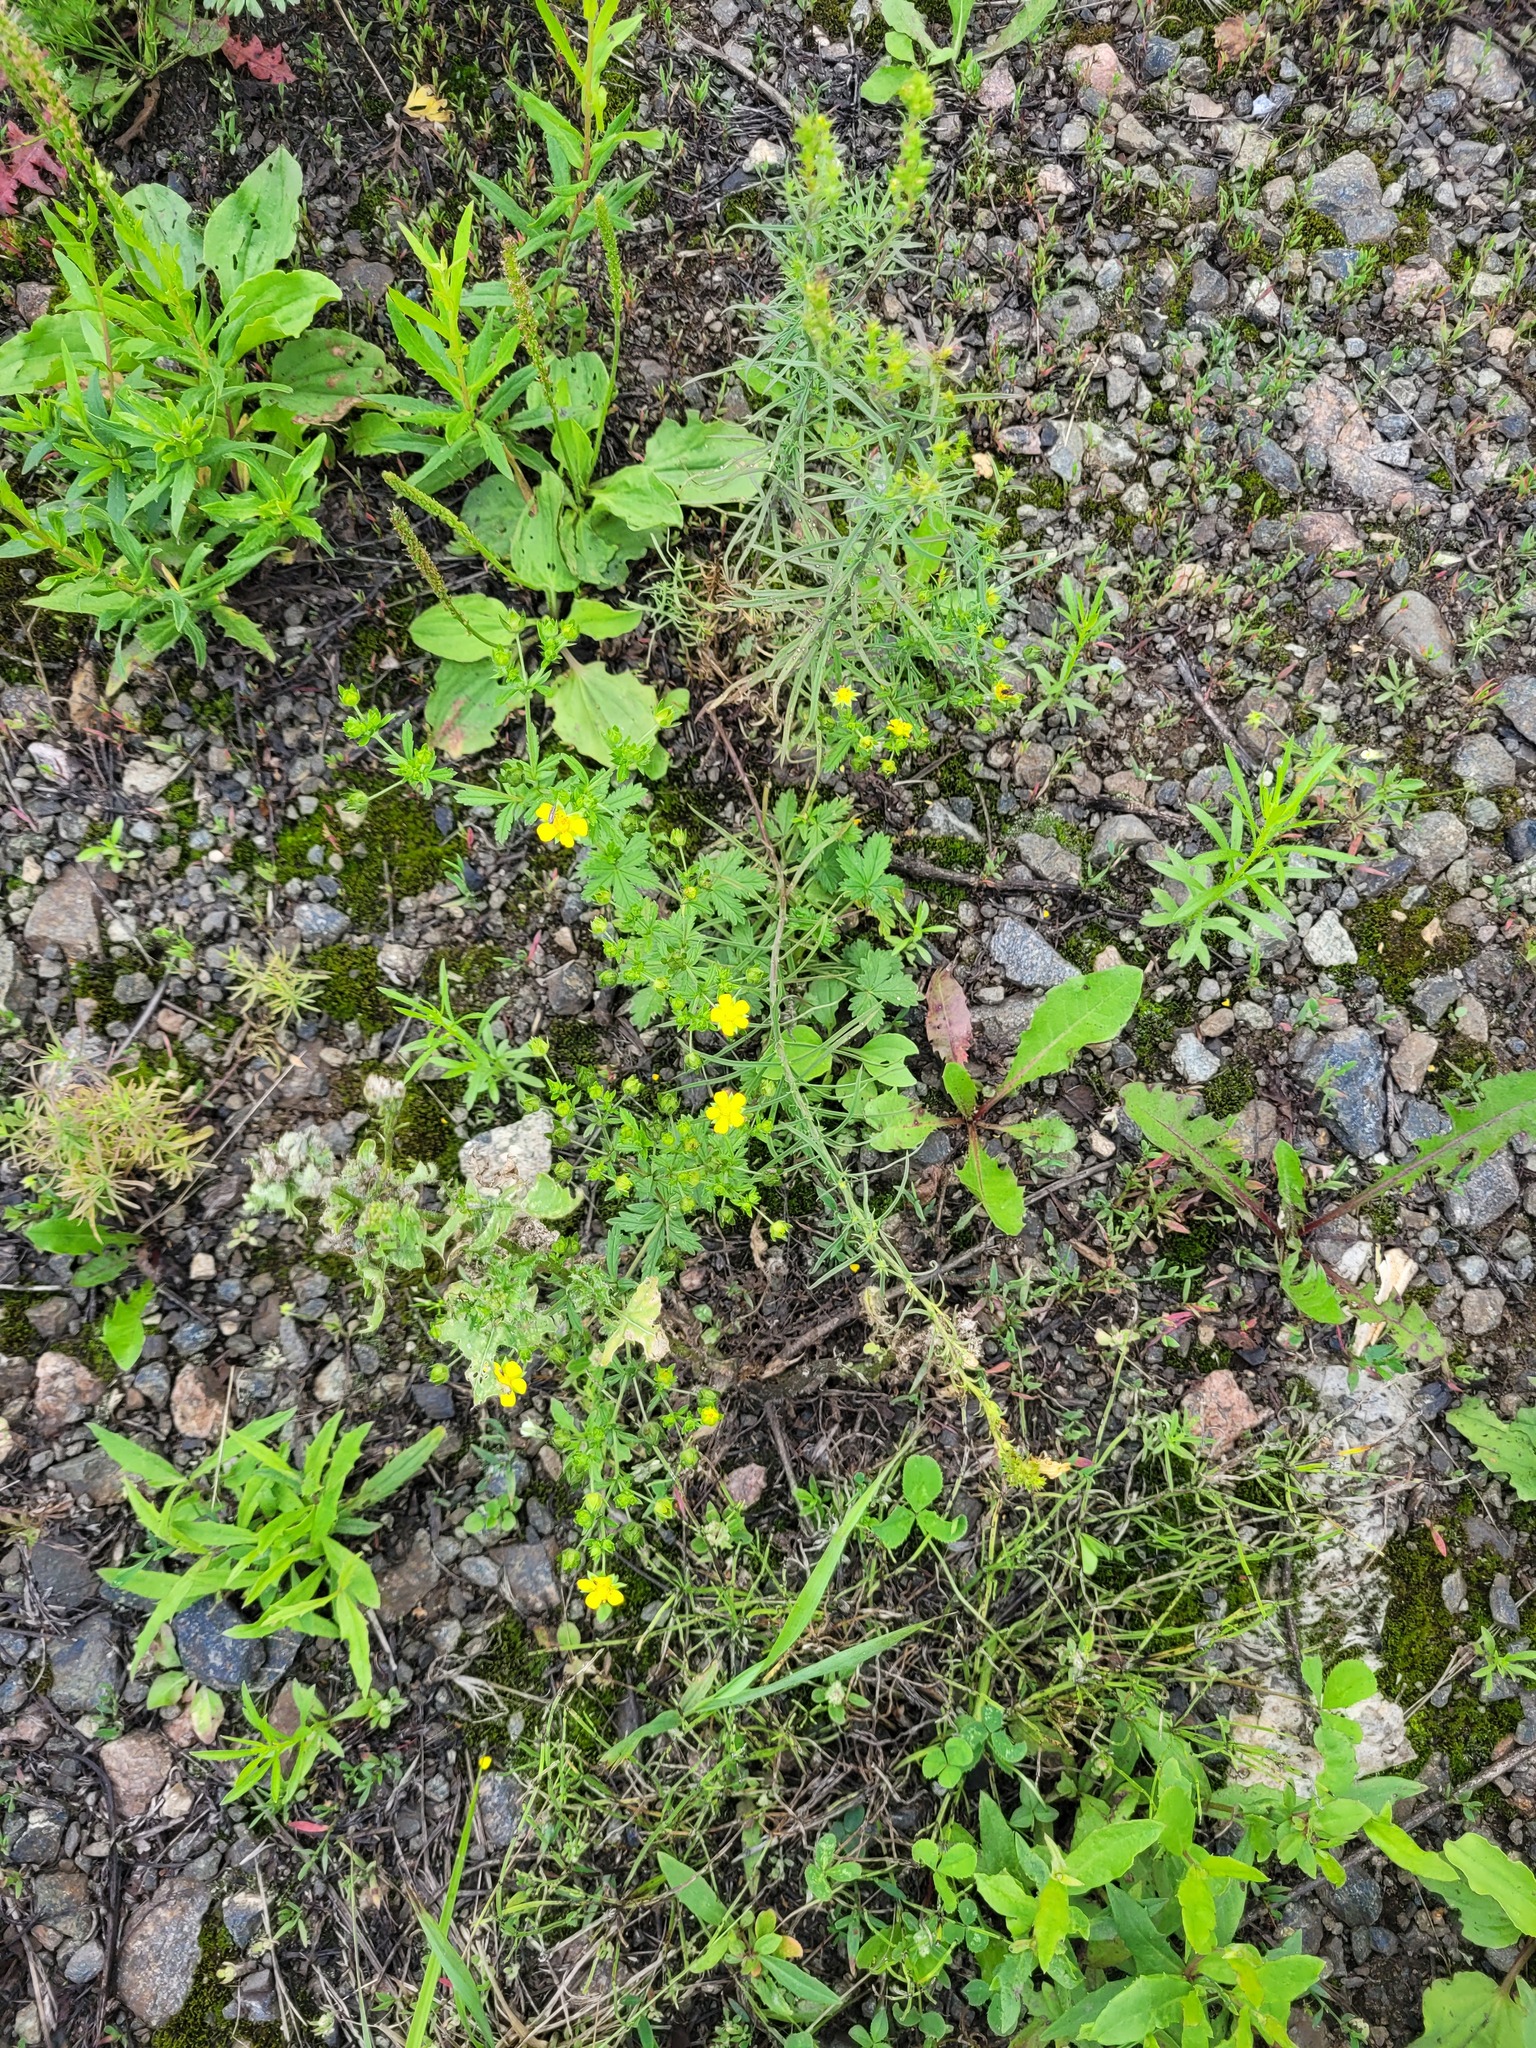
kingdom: Plantae
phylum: Tracheophyta
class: Magnoliopsida
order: Rosales
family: Rosaceae
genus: Potentilla
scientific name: Potentilla intermedia
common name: Downy cinquefoil
